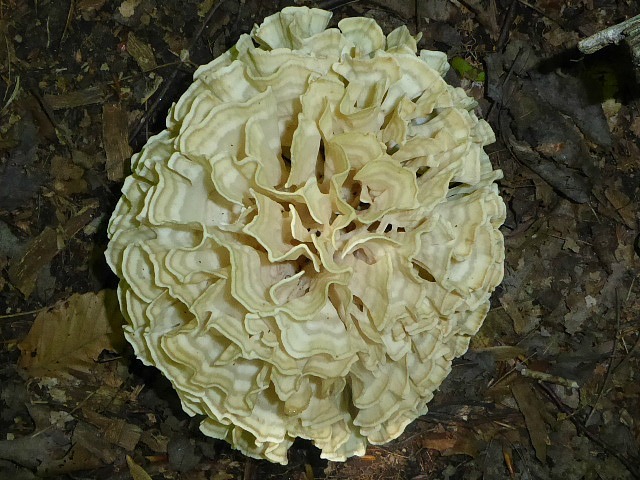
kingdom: Fungi
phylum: Basidiomycota
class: Agaricomycetes
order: Polyporales
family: Sparassidaceae
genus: Sparassis
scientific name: Sparassis spathulata
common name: Eastern cauliflower mushroom
